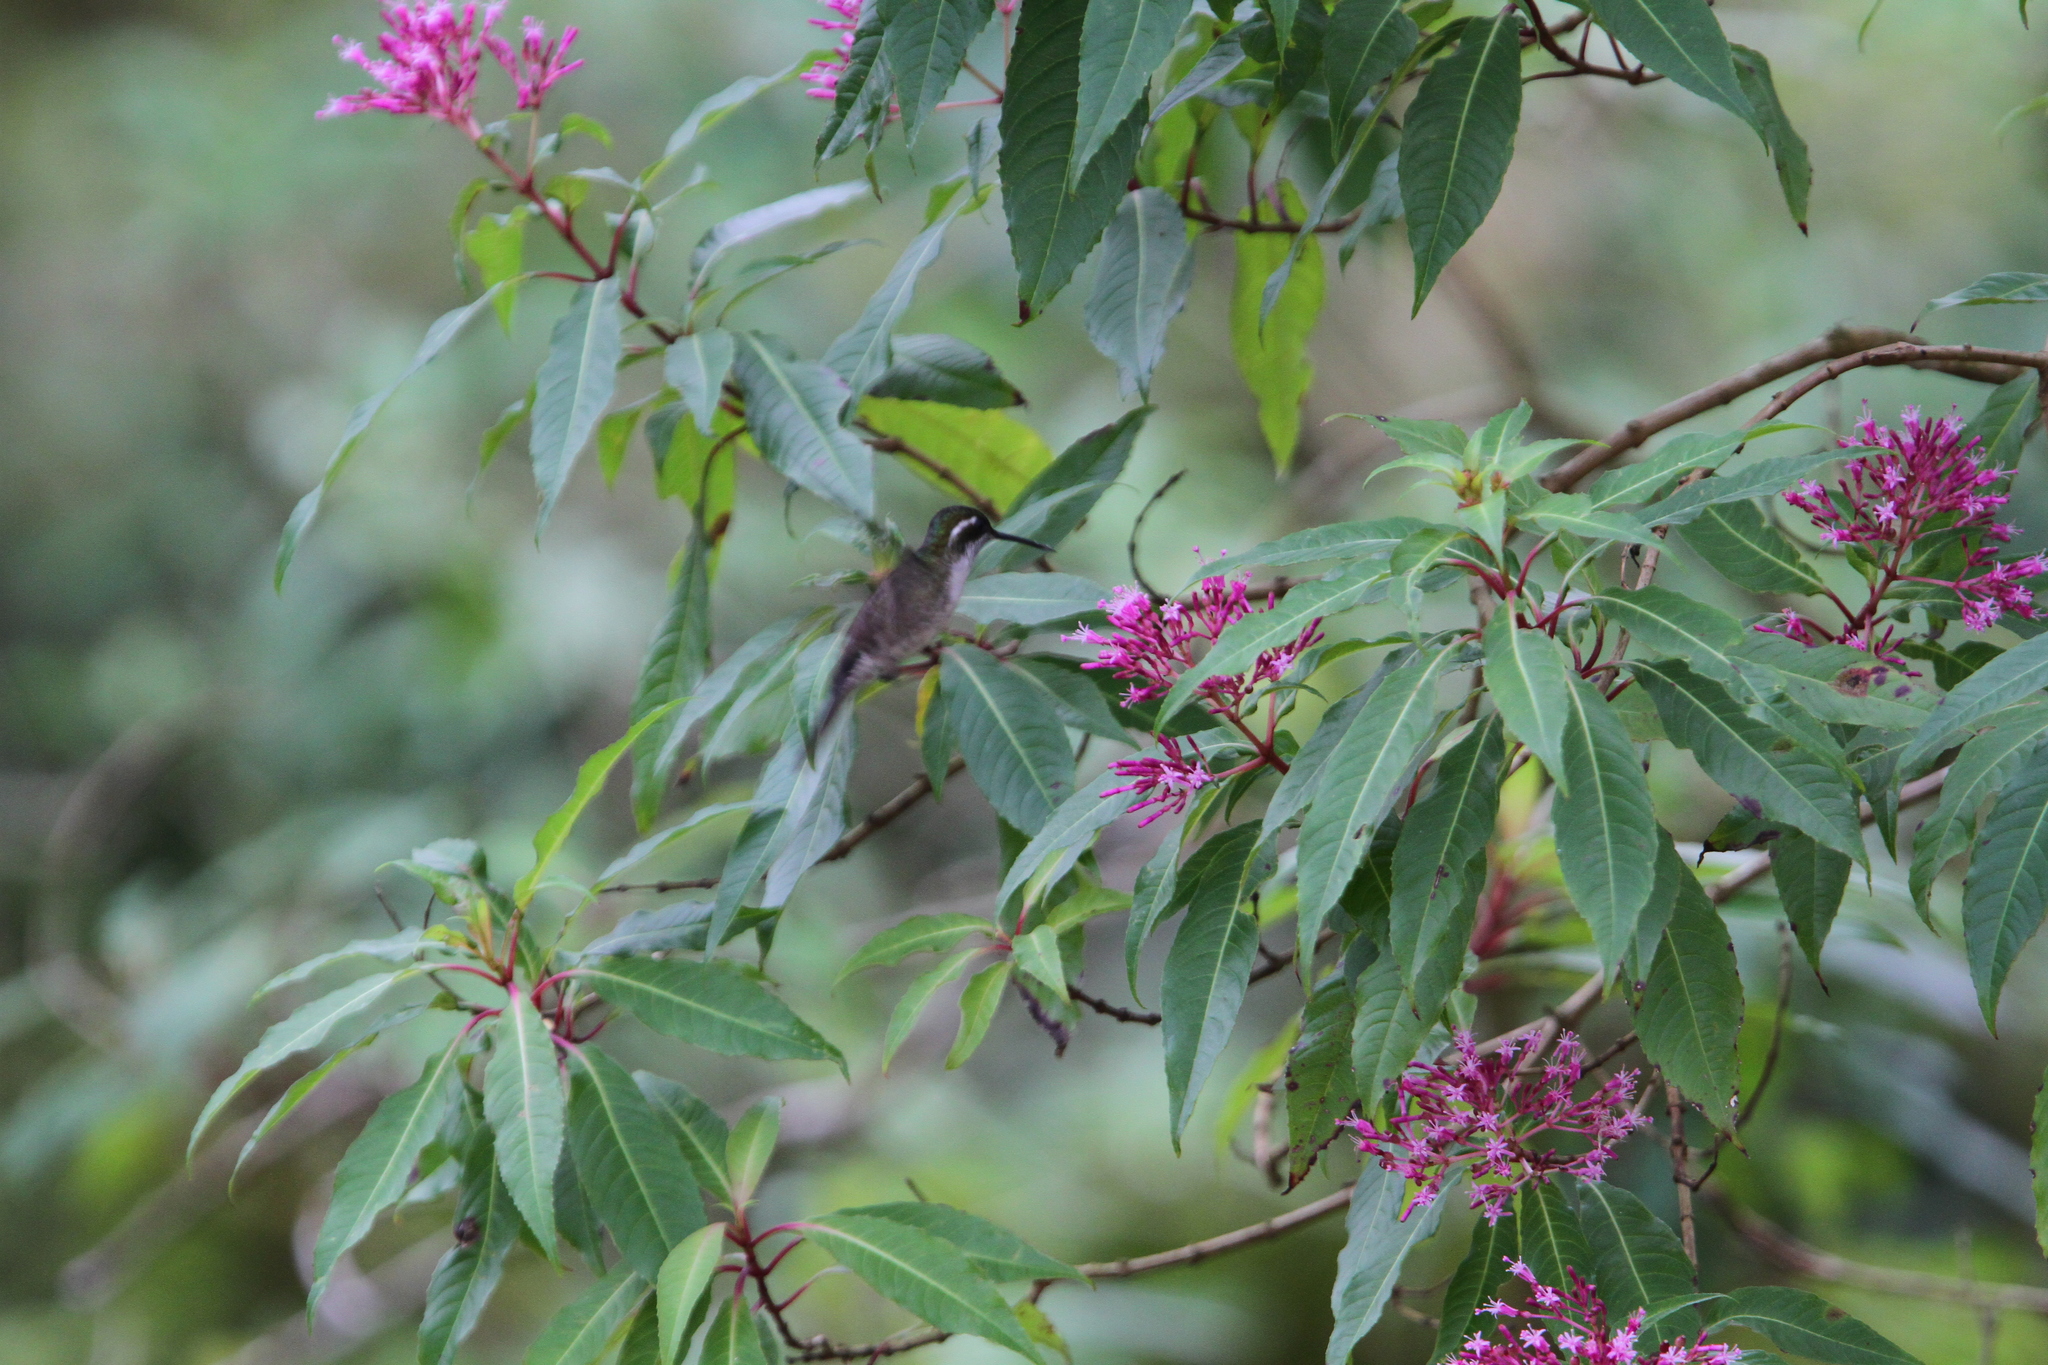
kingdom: Animalia
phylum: Chordata
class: Aves
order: Apodiformes
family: Trochilidae
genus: Lampornis
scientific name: Lampornis viridipallens
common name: Green-throated mountain-gem
